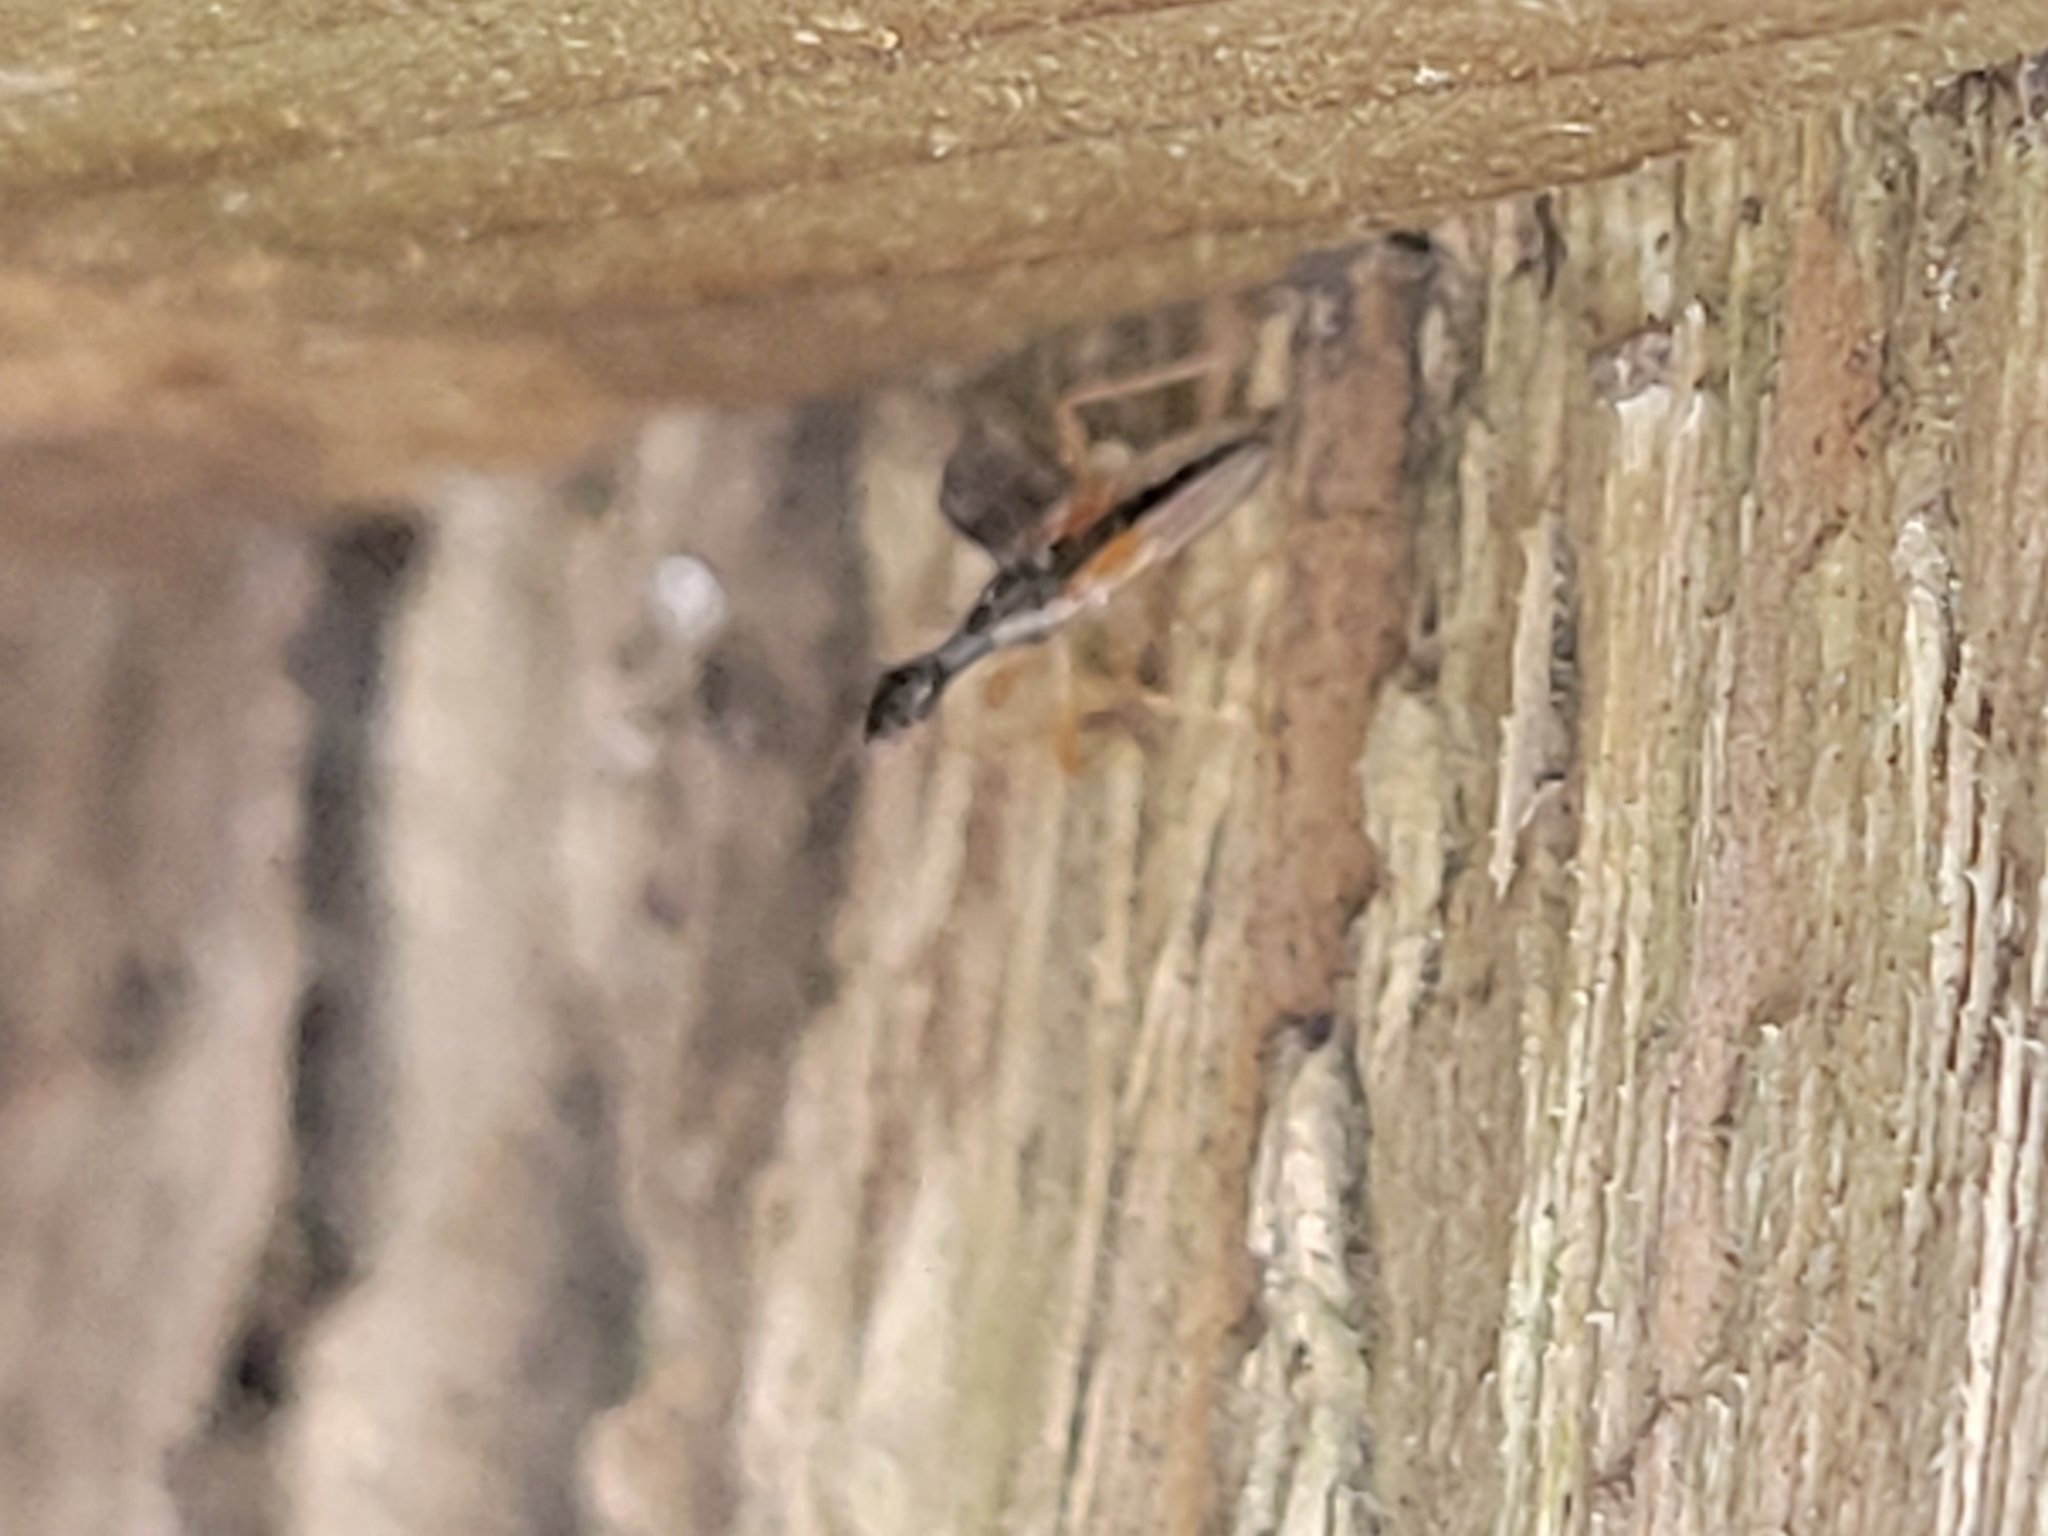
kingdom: Animalia
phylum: Arthropoda
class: Insecta
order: Hemiptera
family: Rhyparochromidae
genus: Myodocha
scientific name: Myodocha serripes
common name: Long-necked seed bug
